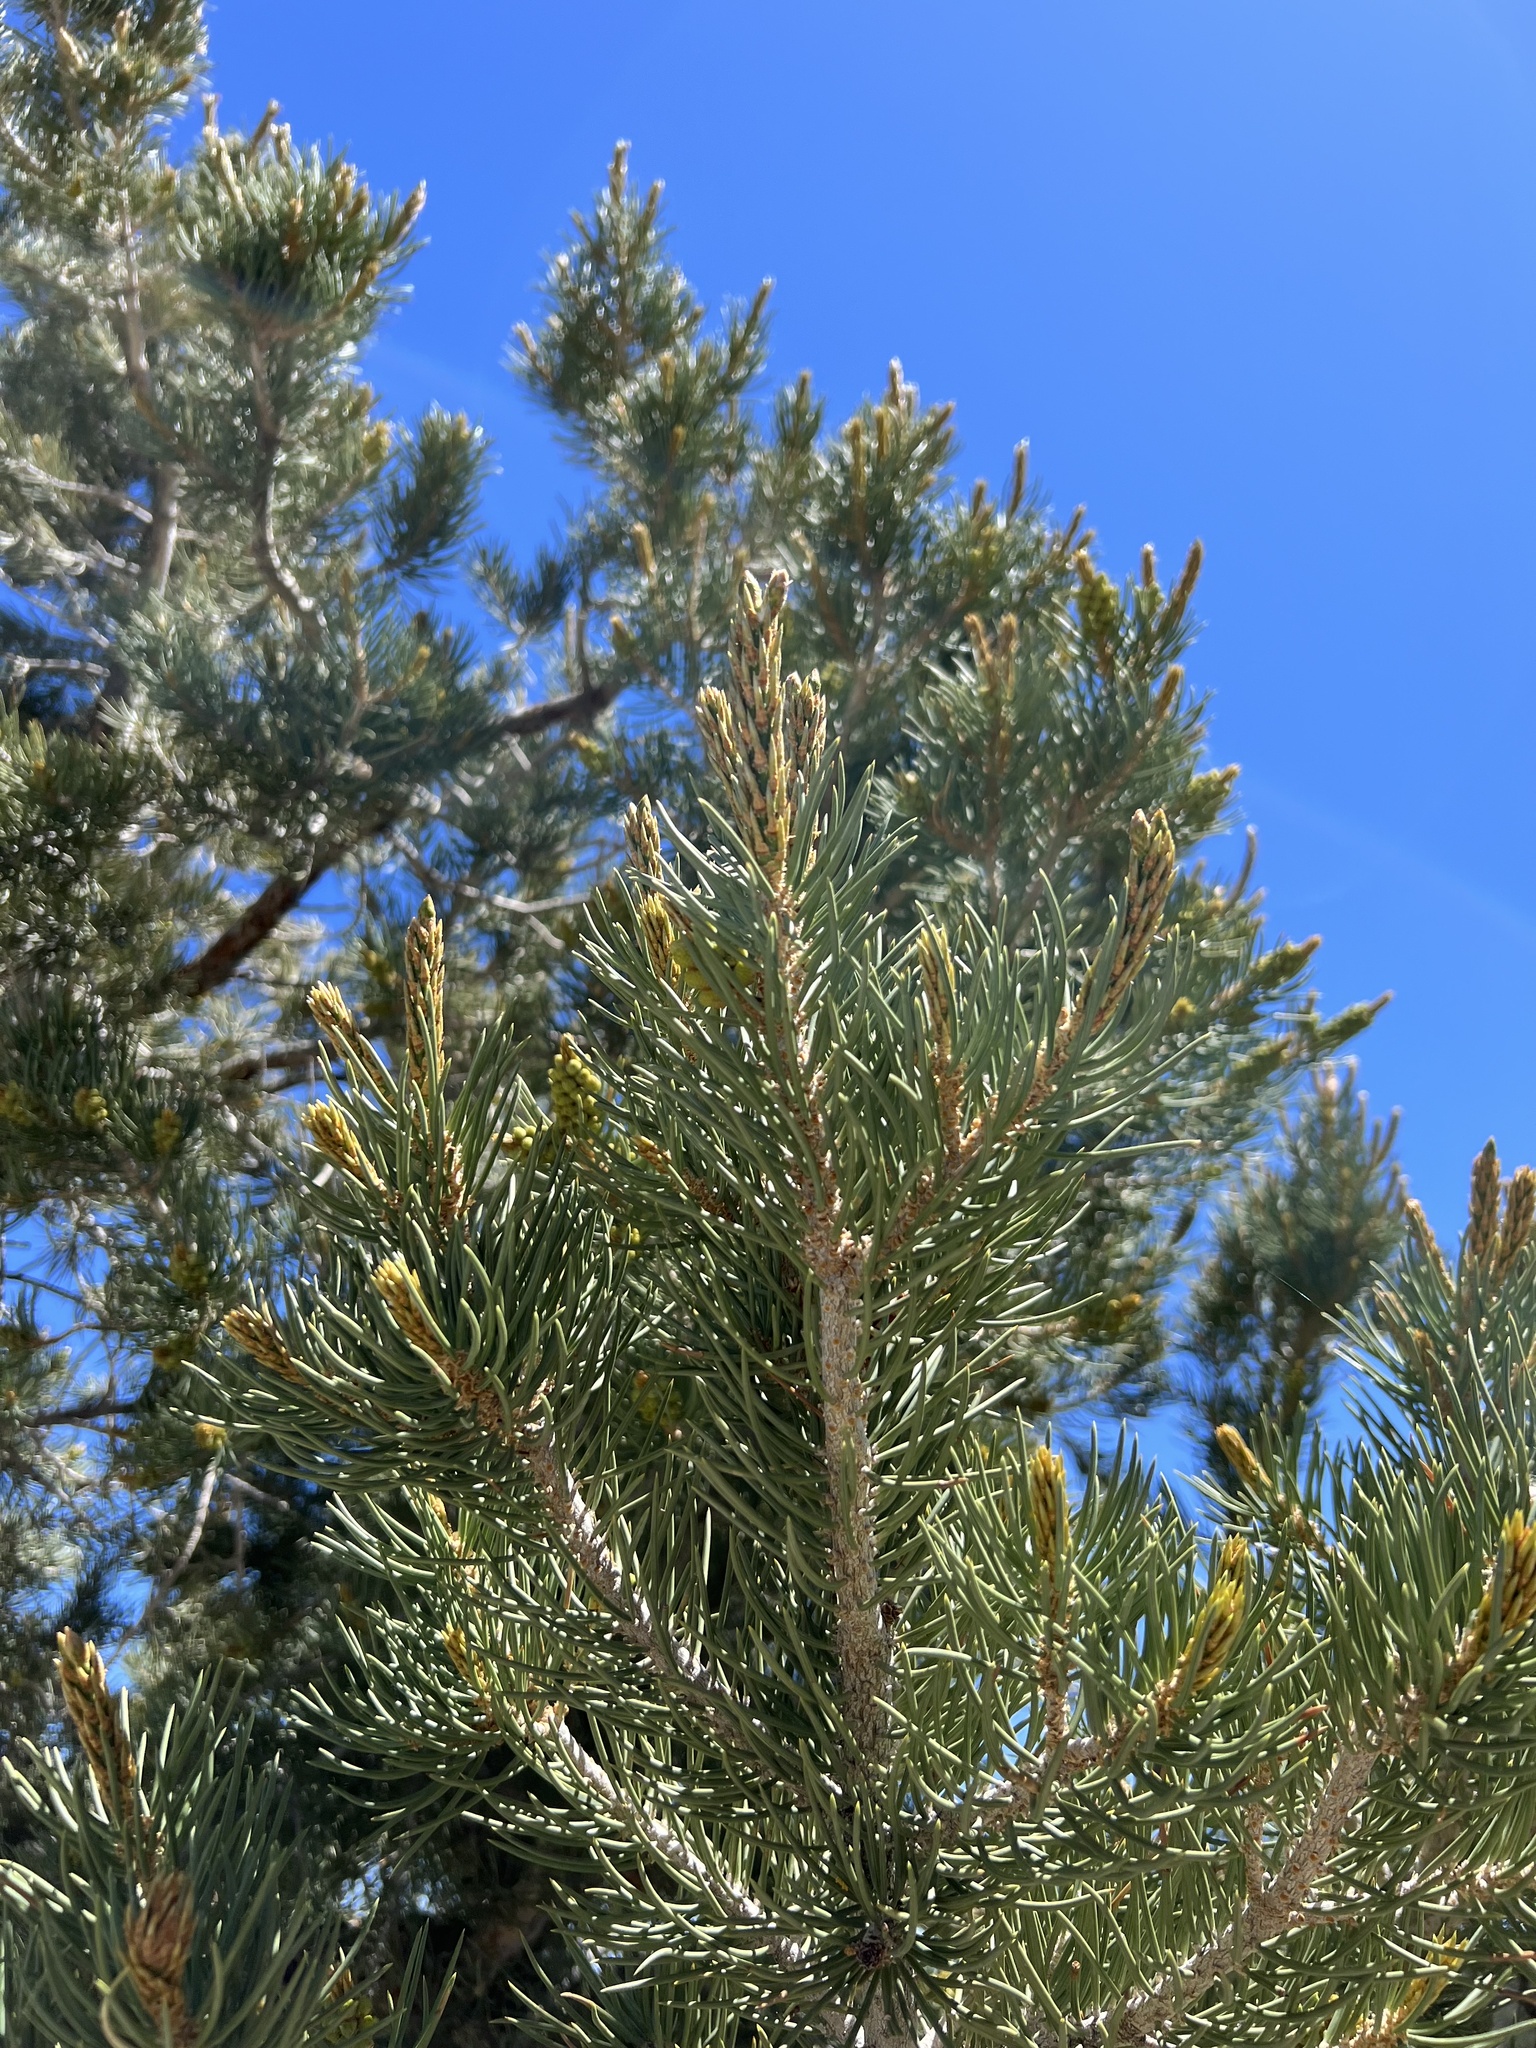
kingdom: Plantae
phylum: Tracheophyta
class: Pinopsida
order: Pinales
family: Pinaceae
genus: Pinus
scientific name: Pinus monophylla
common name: One-leaved nut pine
